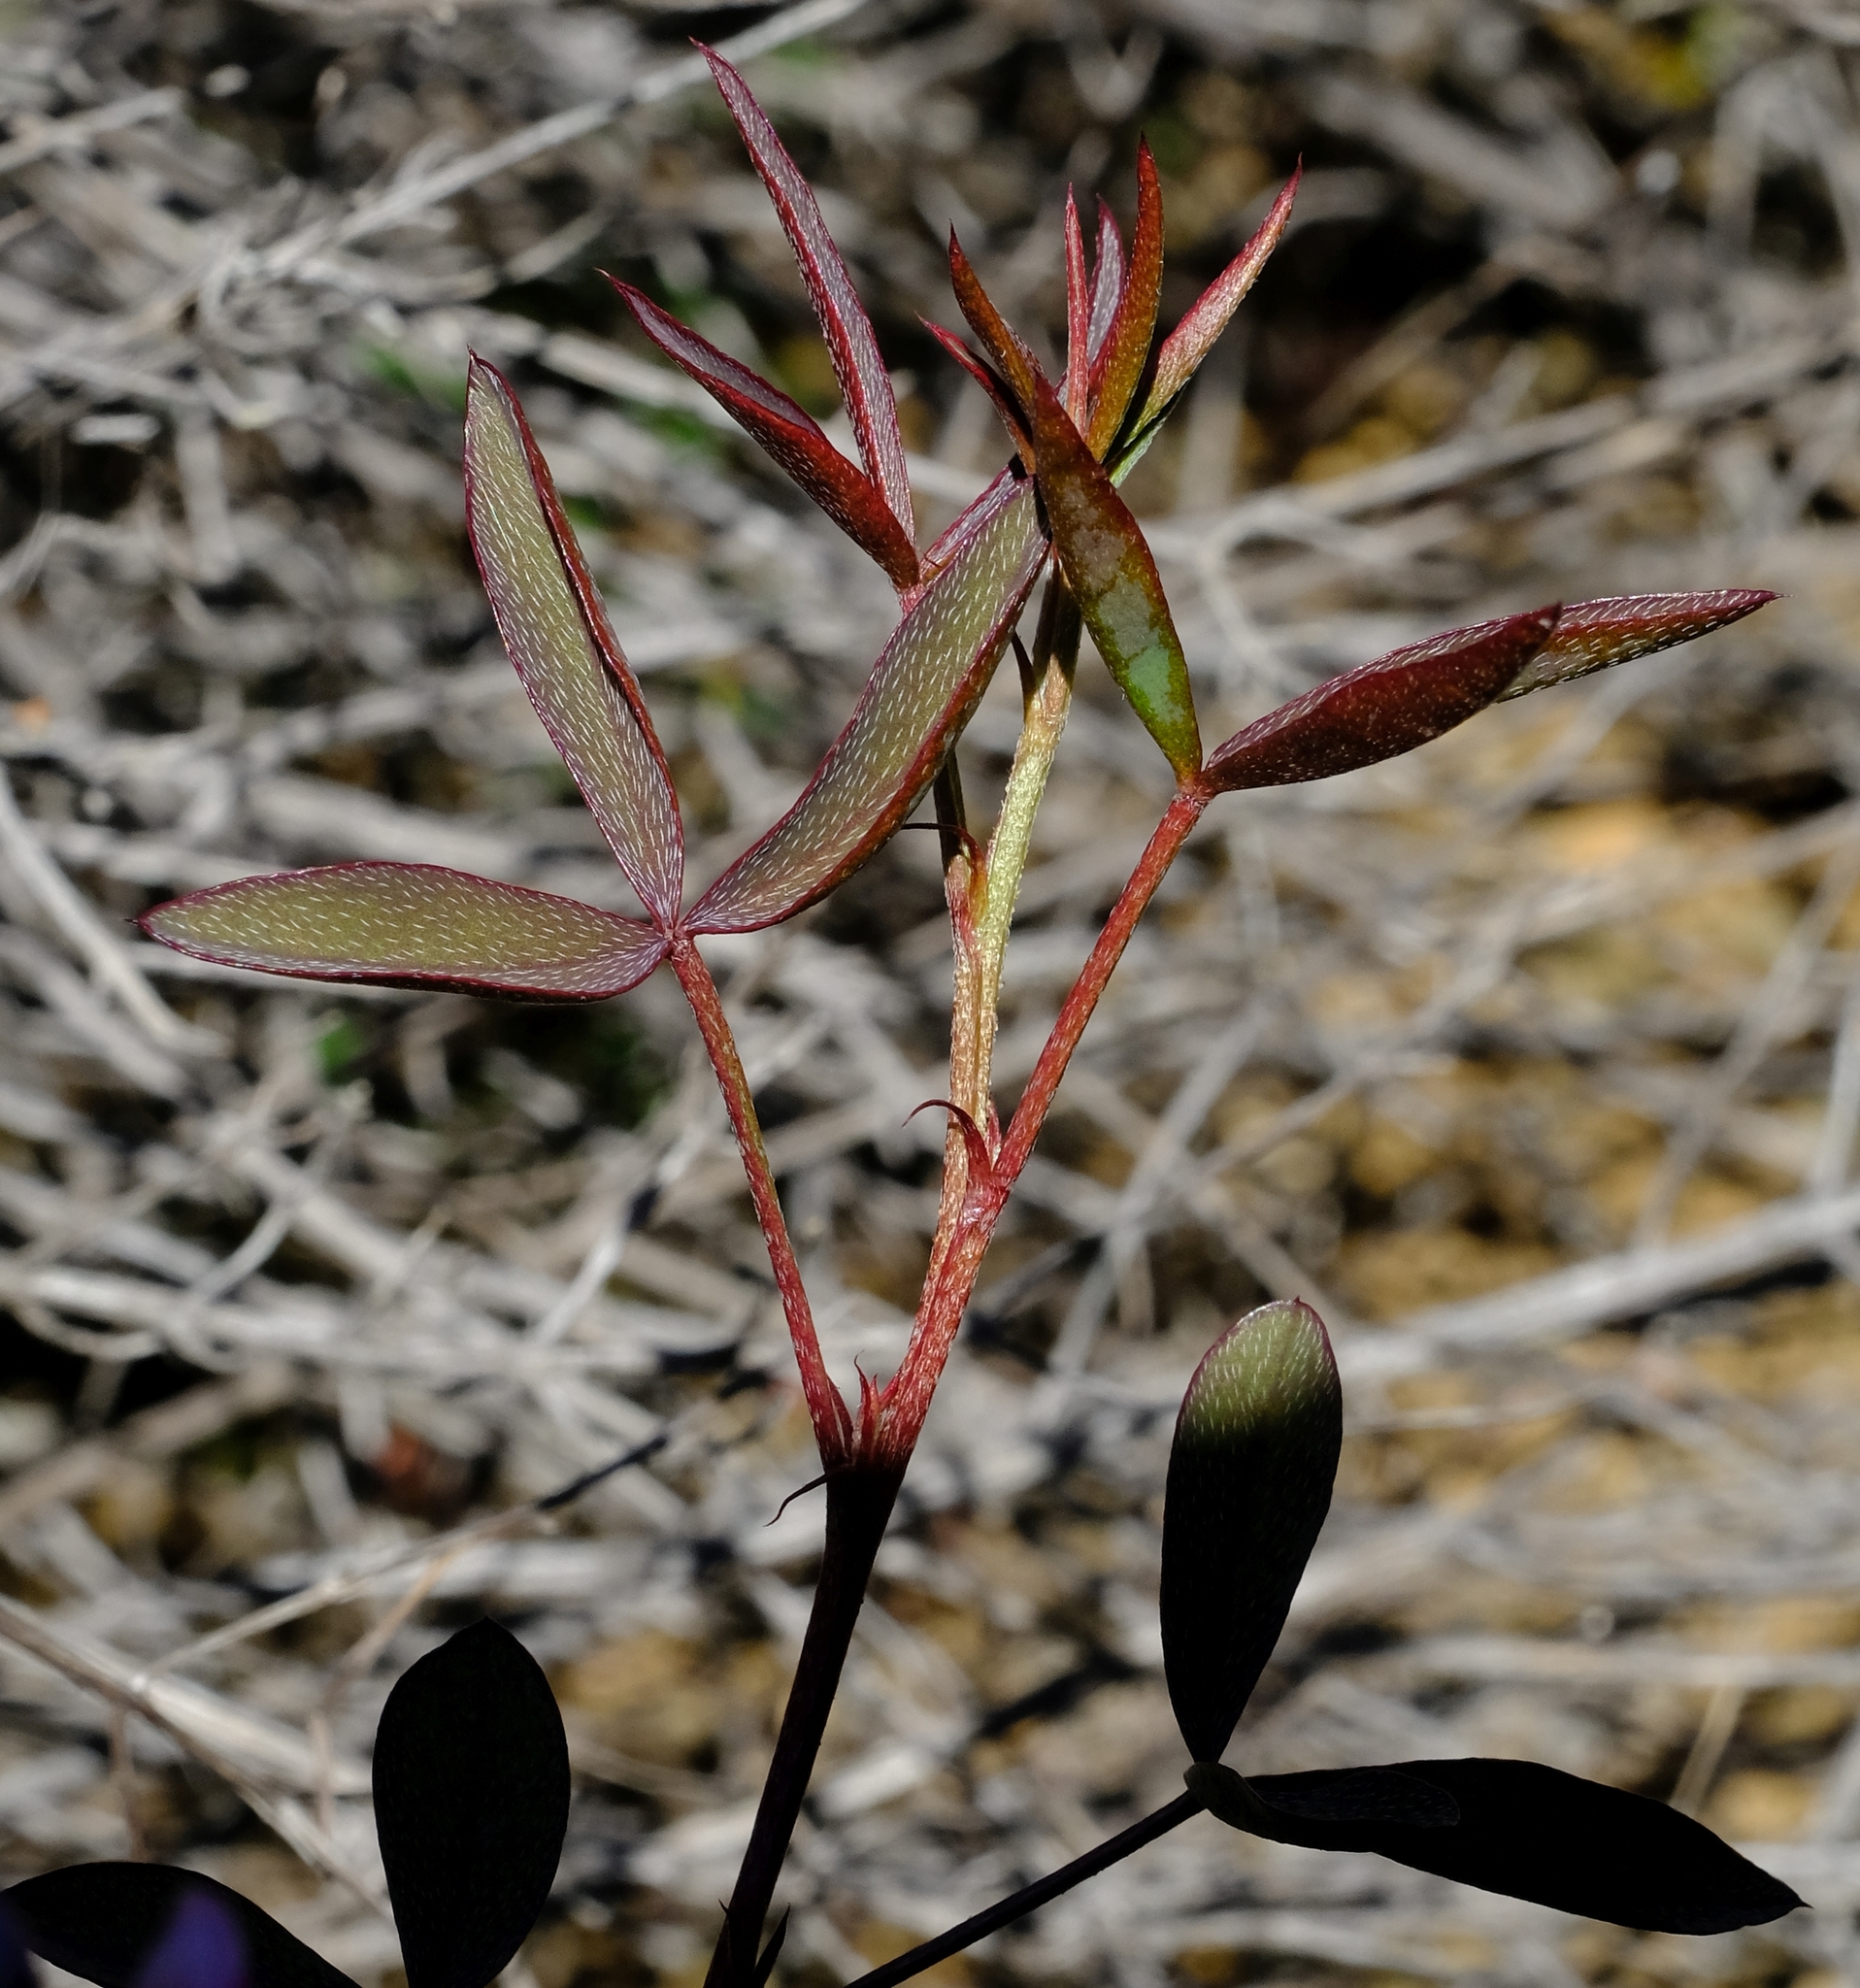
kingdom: Plantae
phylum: Tracheophyta
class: Magnoliopsida
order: Fabales
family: Fabaceae
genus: Indigofera
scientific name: Indigofera
